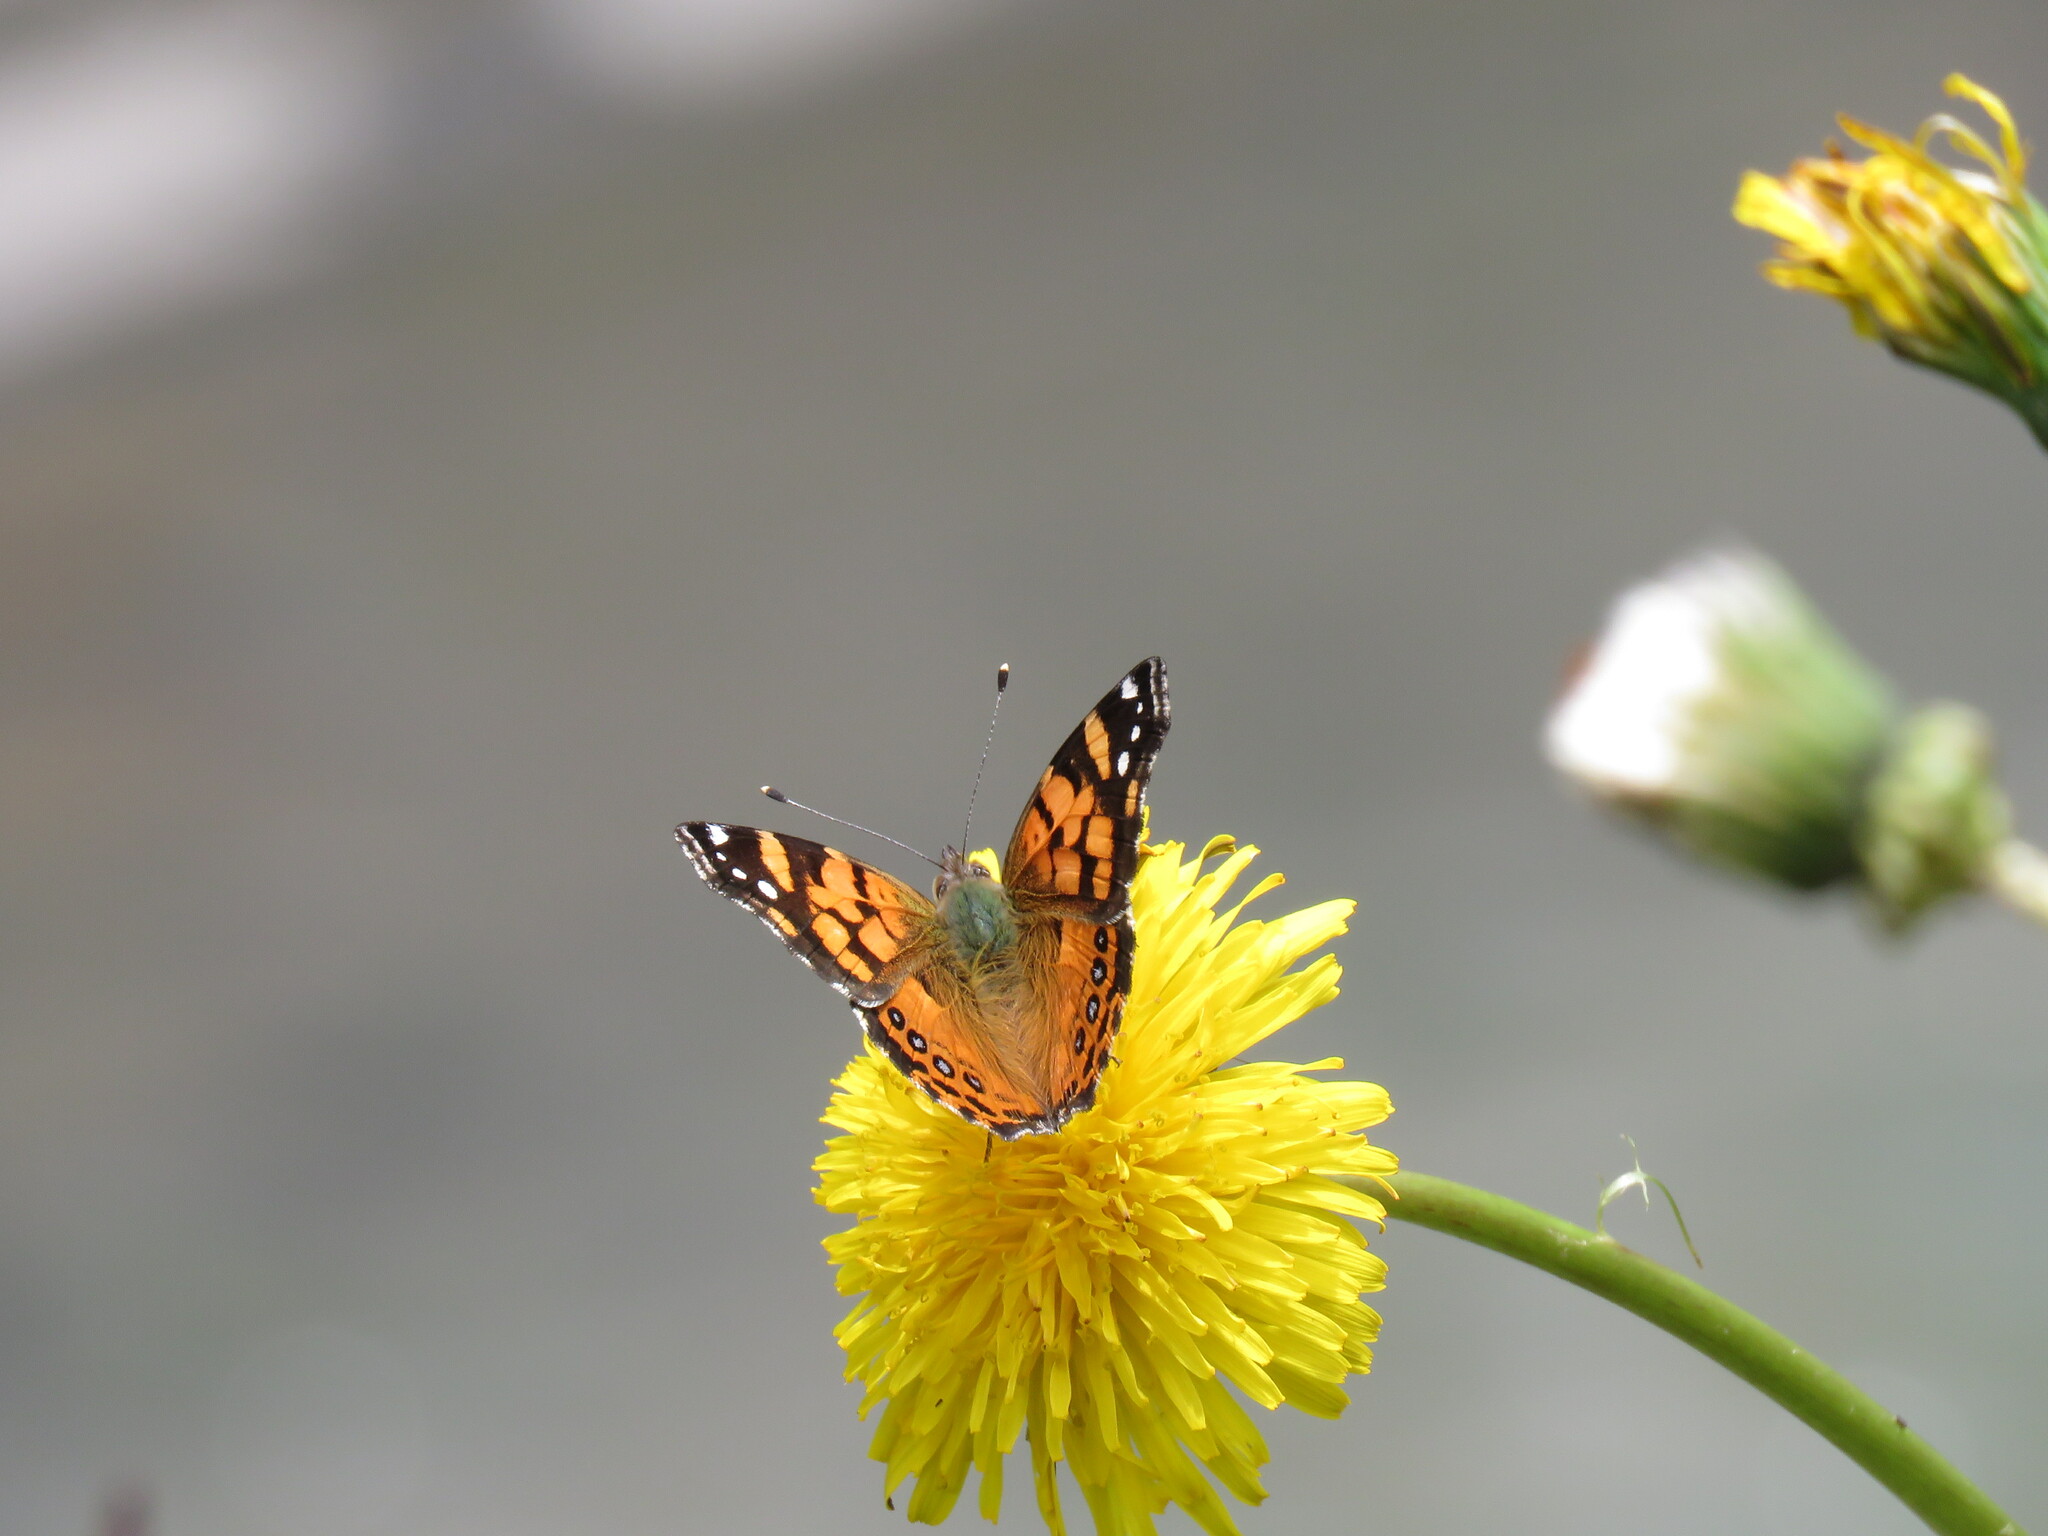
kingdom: Animalia
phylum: Arthropoda
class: Insecta
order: Lepidoptera
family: Nymphalidae
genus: Vanessa
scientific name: Vanessa carye
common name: Subtropical lady
